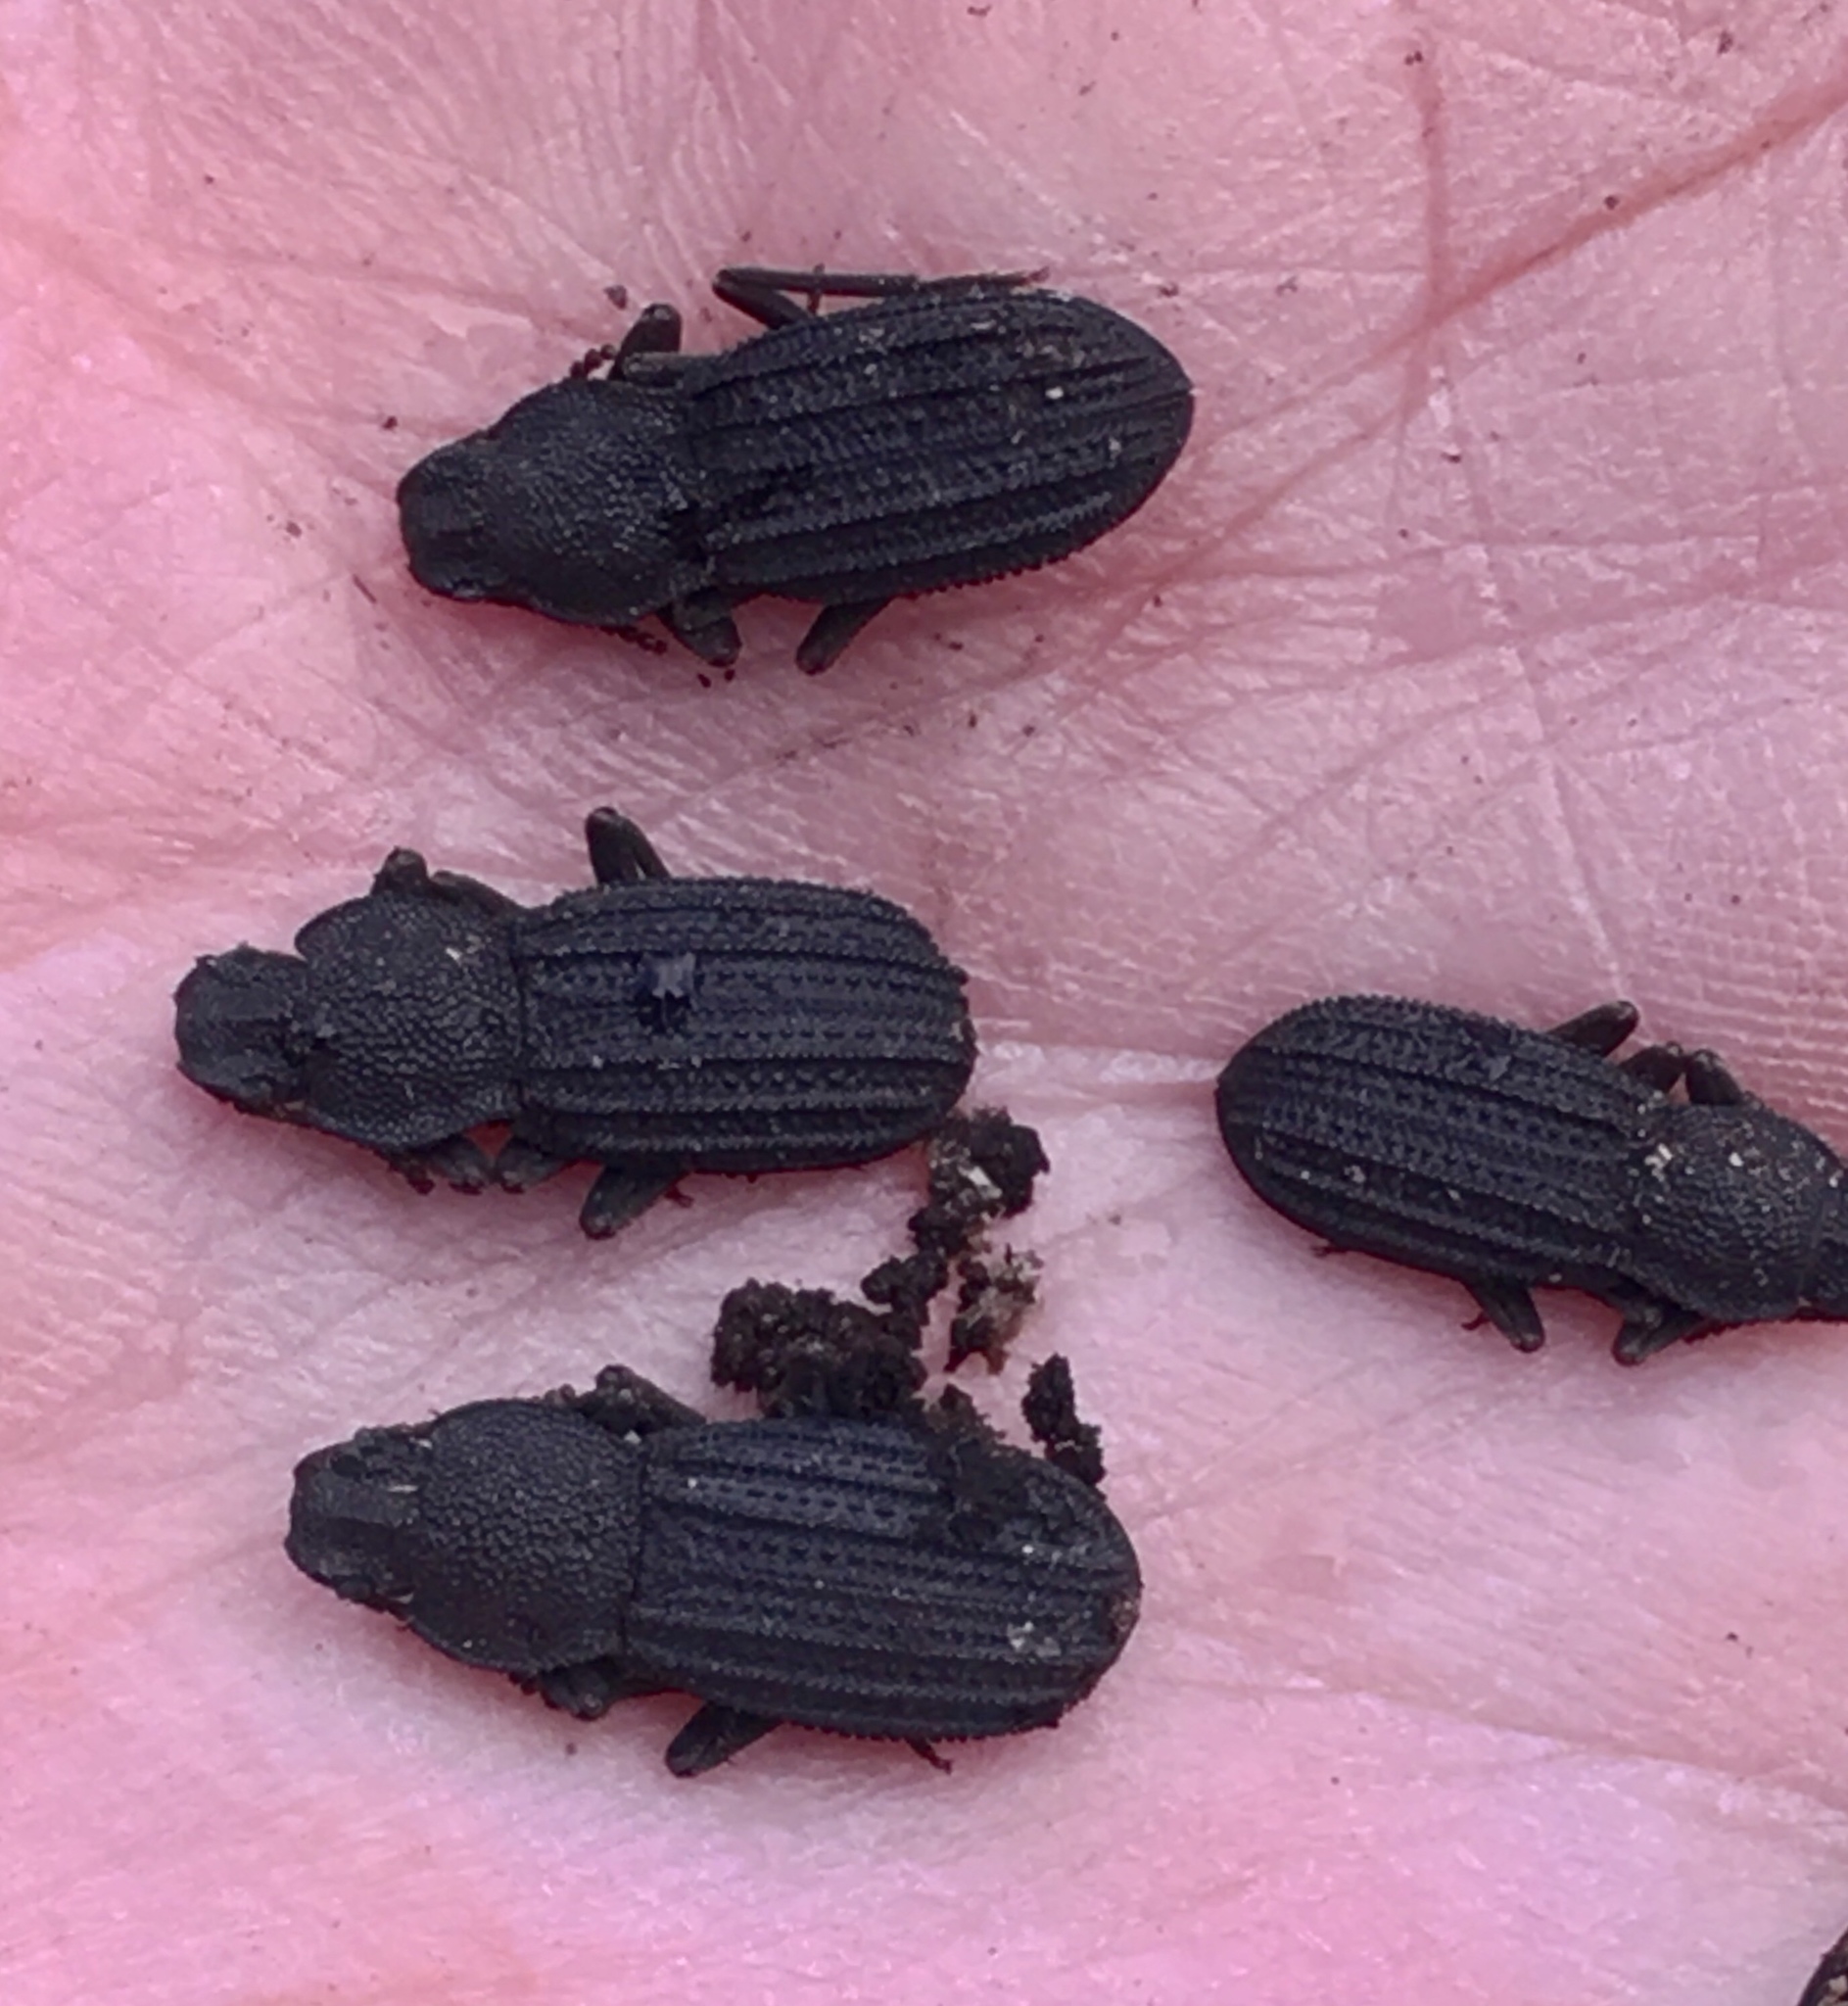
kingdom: Animalia
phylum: Arthropoda
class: Insecta
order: Coleoptera
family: Tenebrionidae
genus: Nyctoporis
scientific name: Nyctoporis carinata
